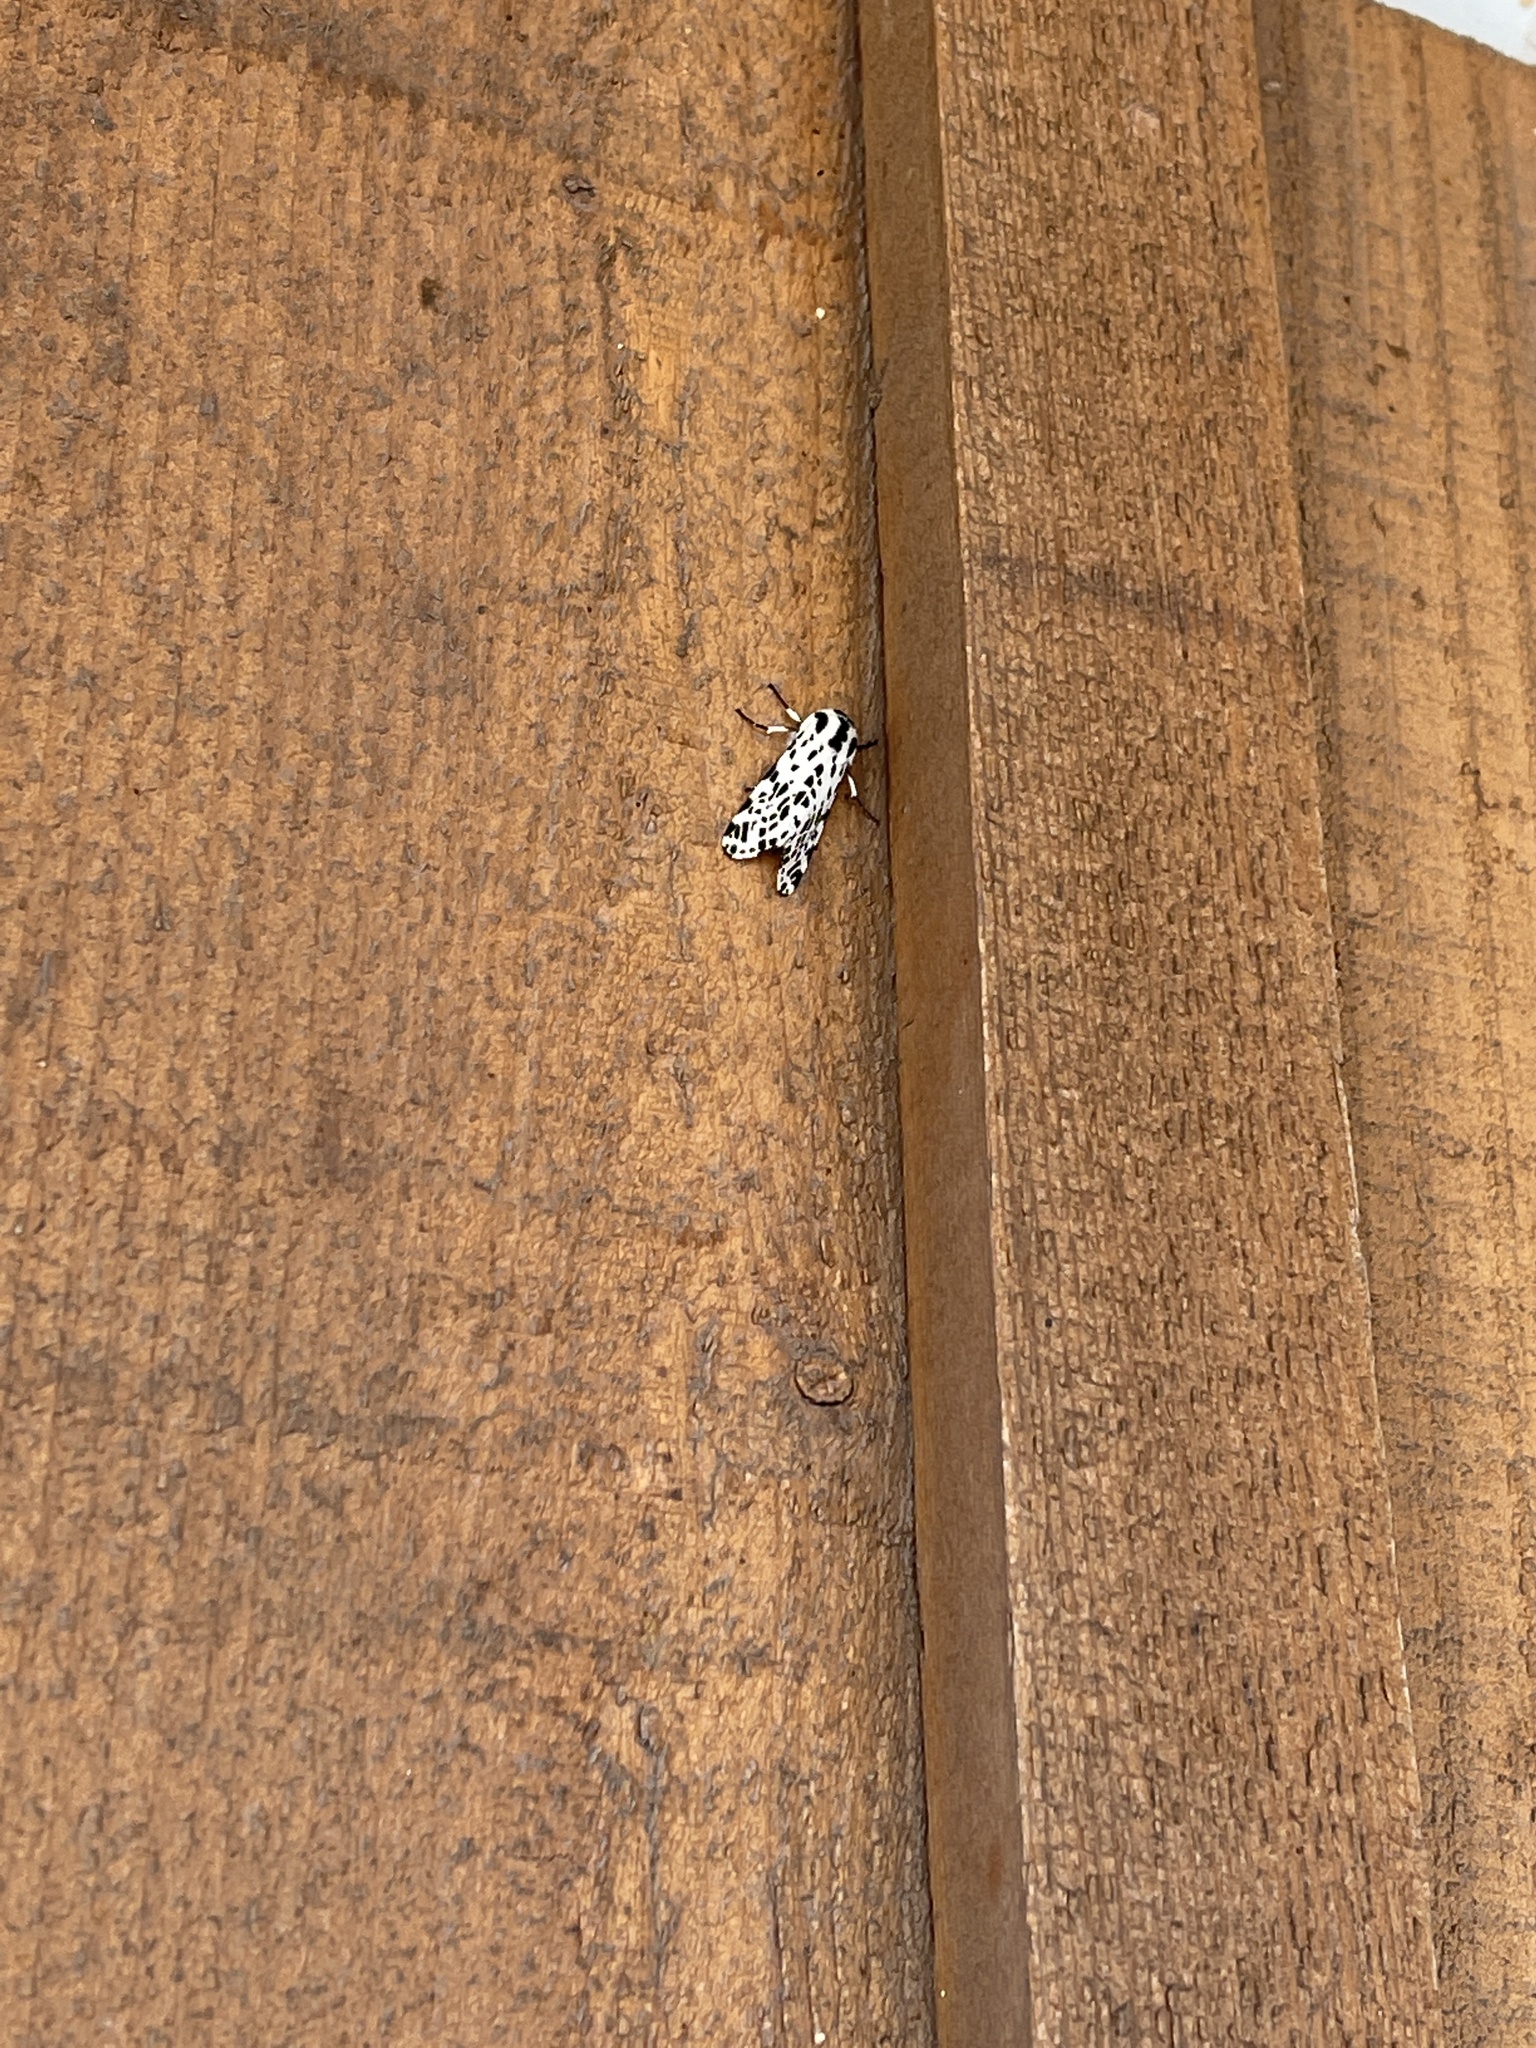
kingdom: Animalia
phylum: Arthropoda
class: Insecta
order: Lepidoptera
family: Erebidae
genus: Hypercompe
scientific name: Hypercompe permaculata
